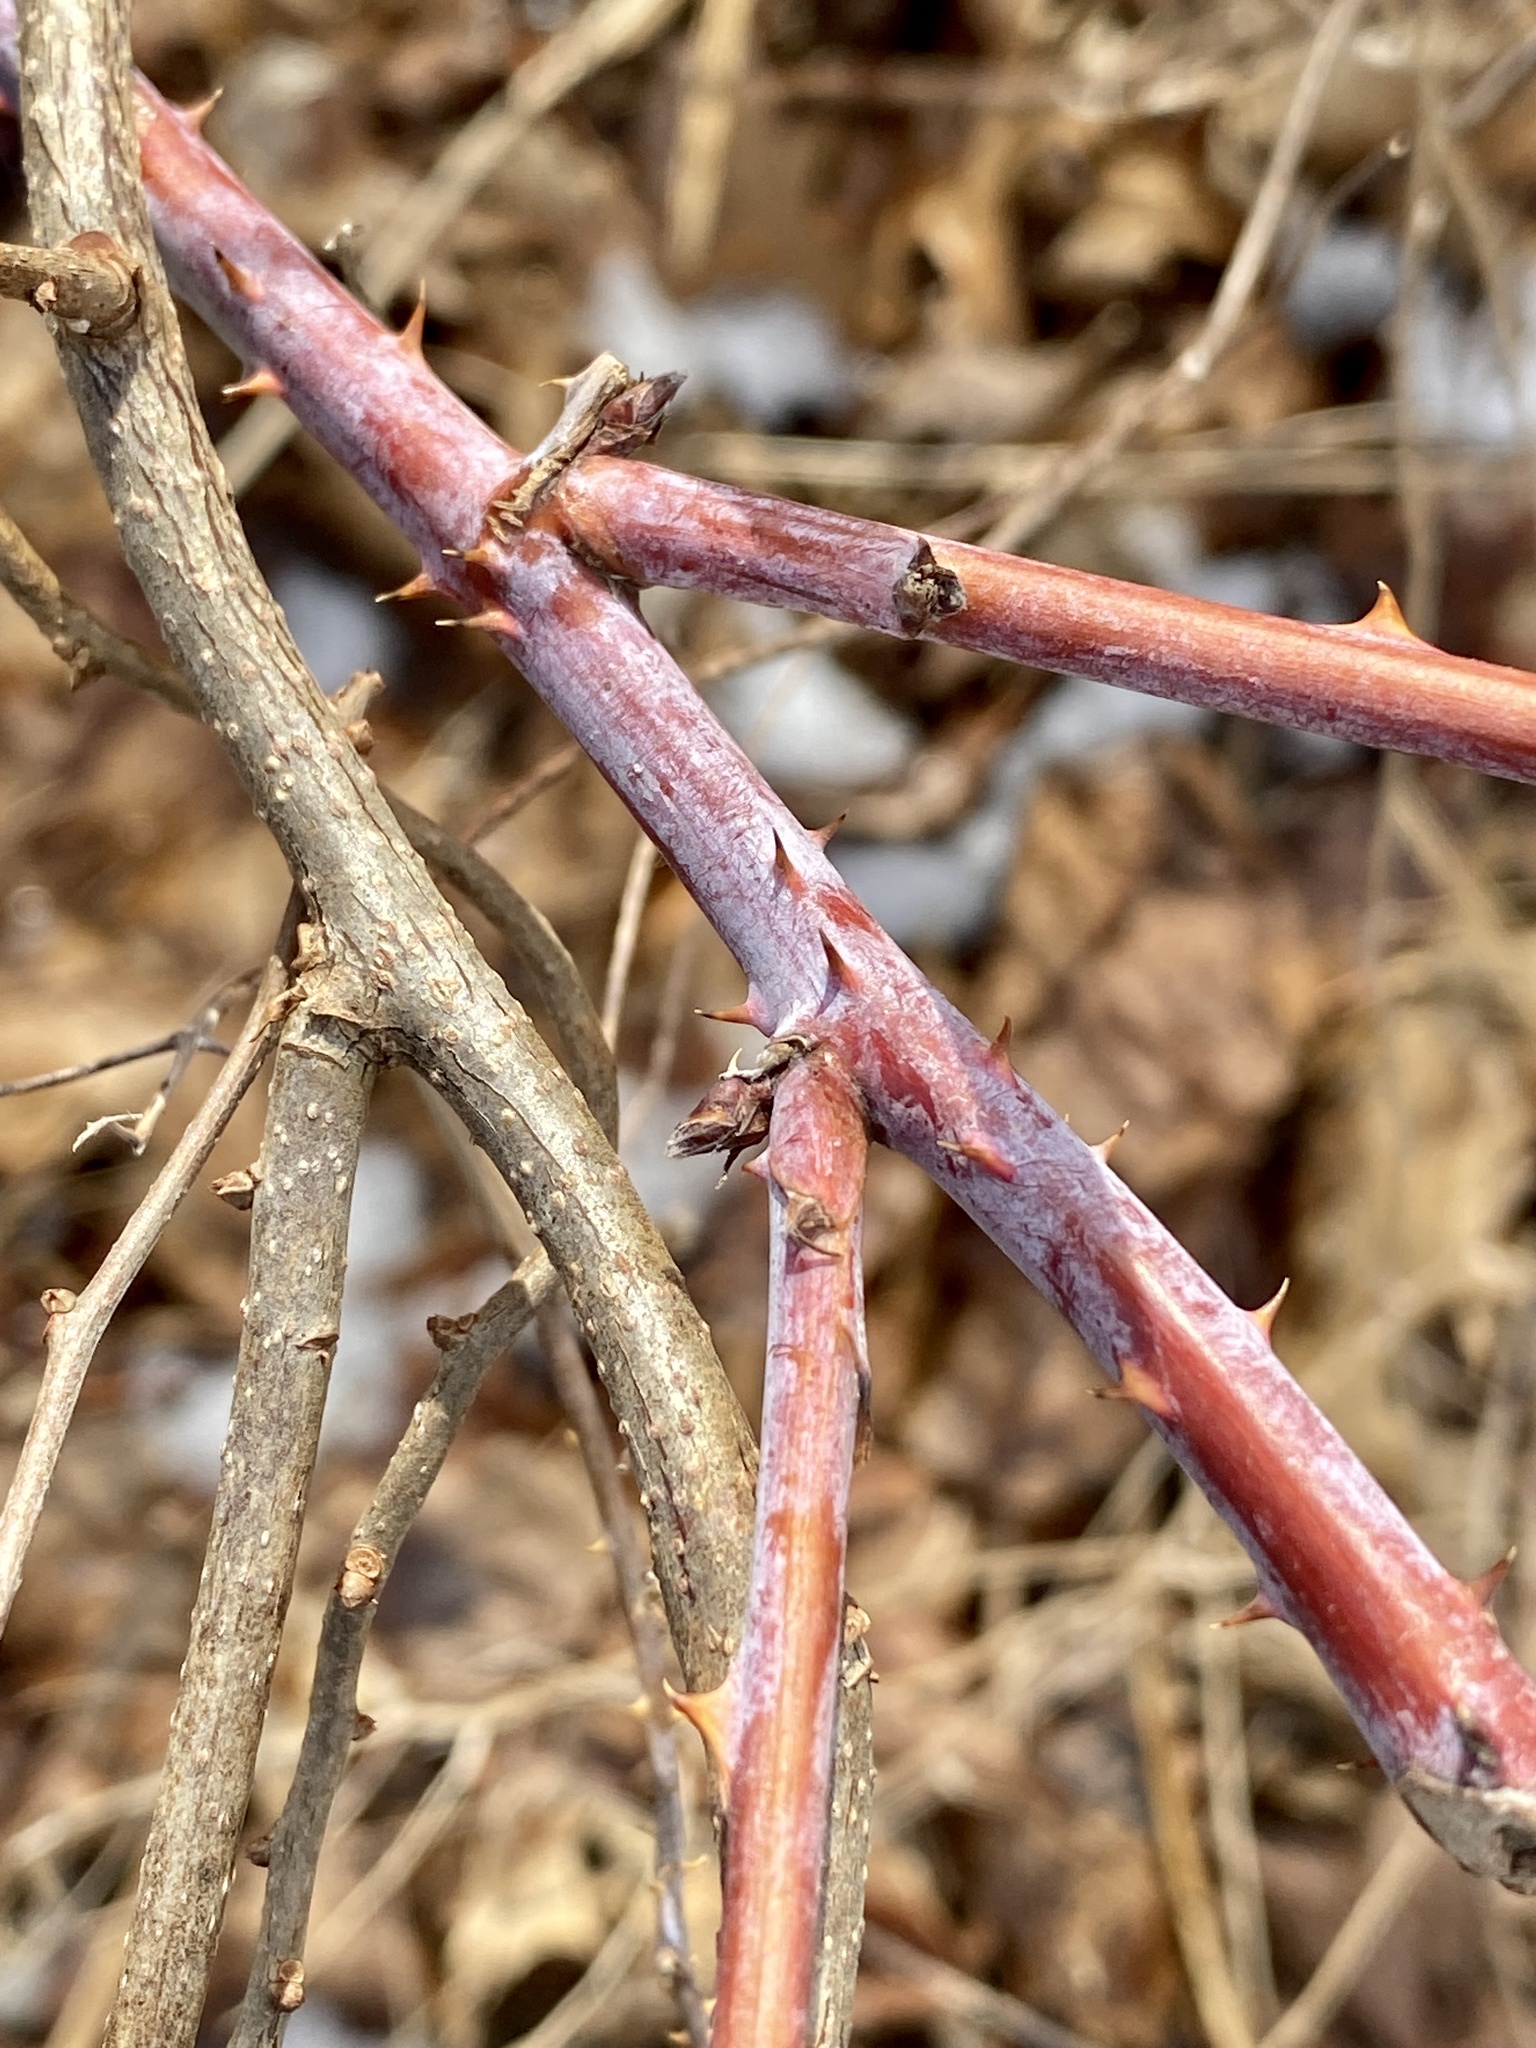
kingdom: Plantae
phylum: Tracheophyta
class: Magnoliopsida
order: Rosales
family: Rosaceae
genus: Rubus
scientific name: Rubus occidentalis
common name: Black raspberry
